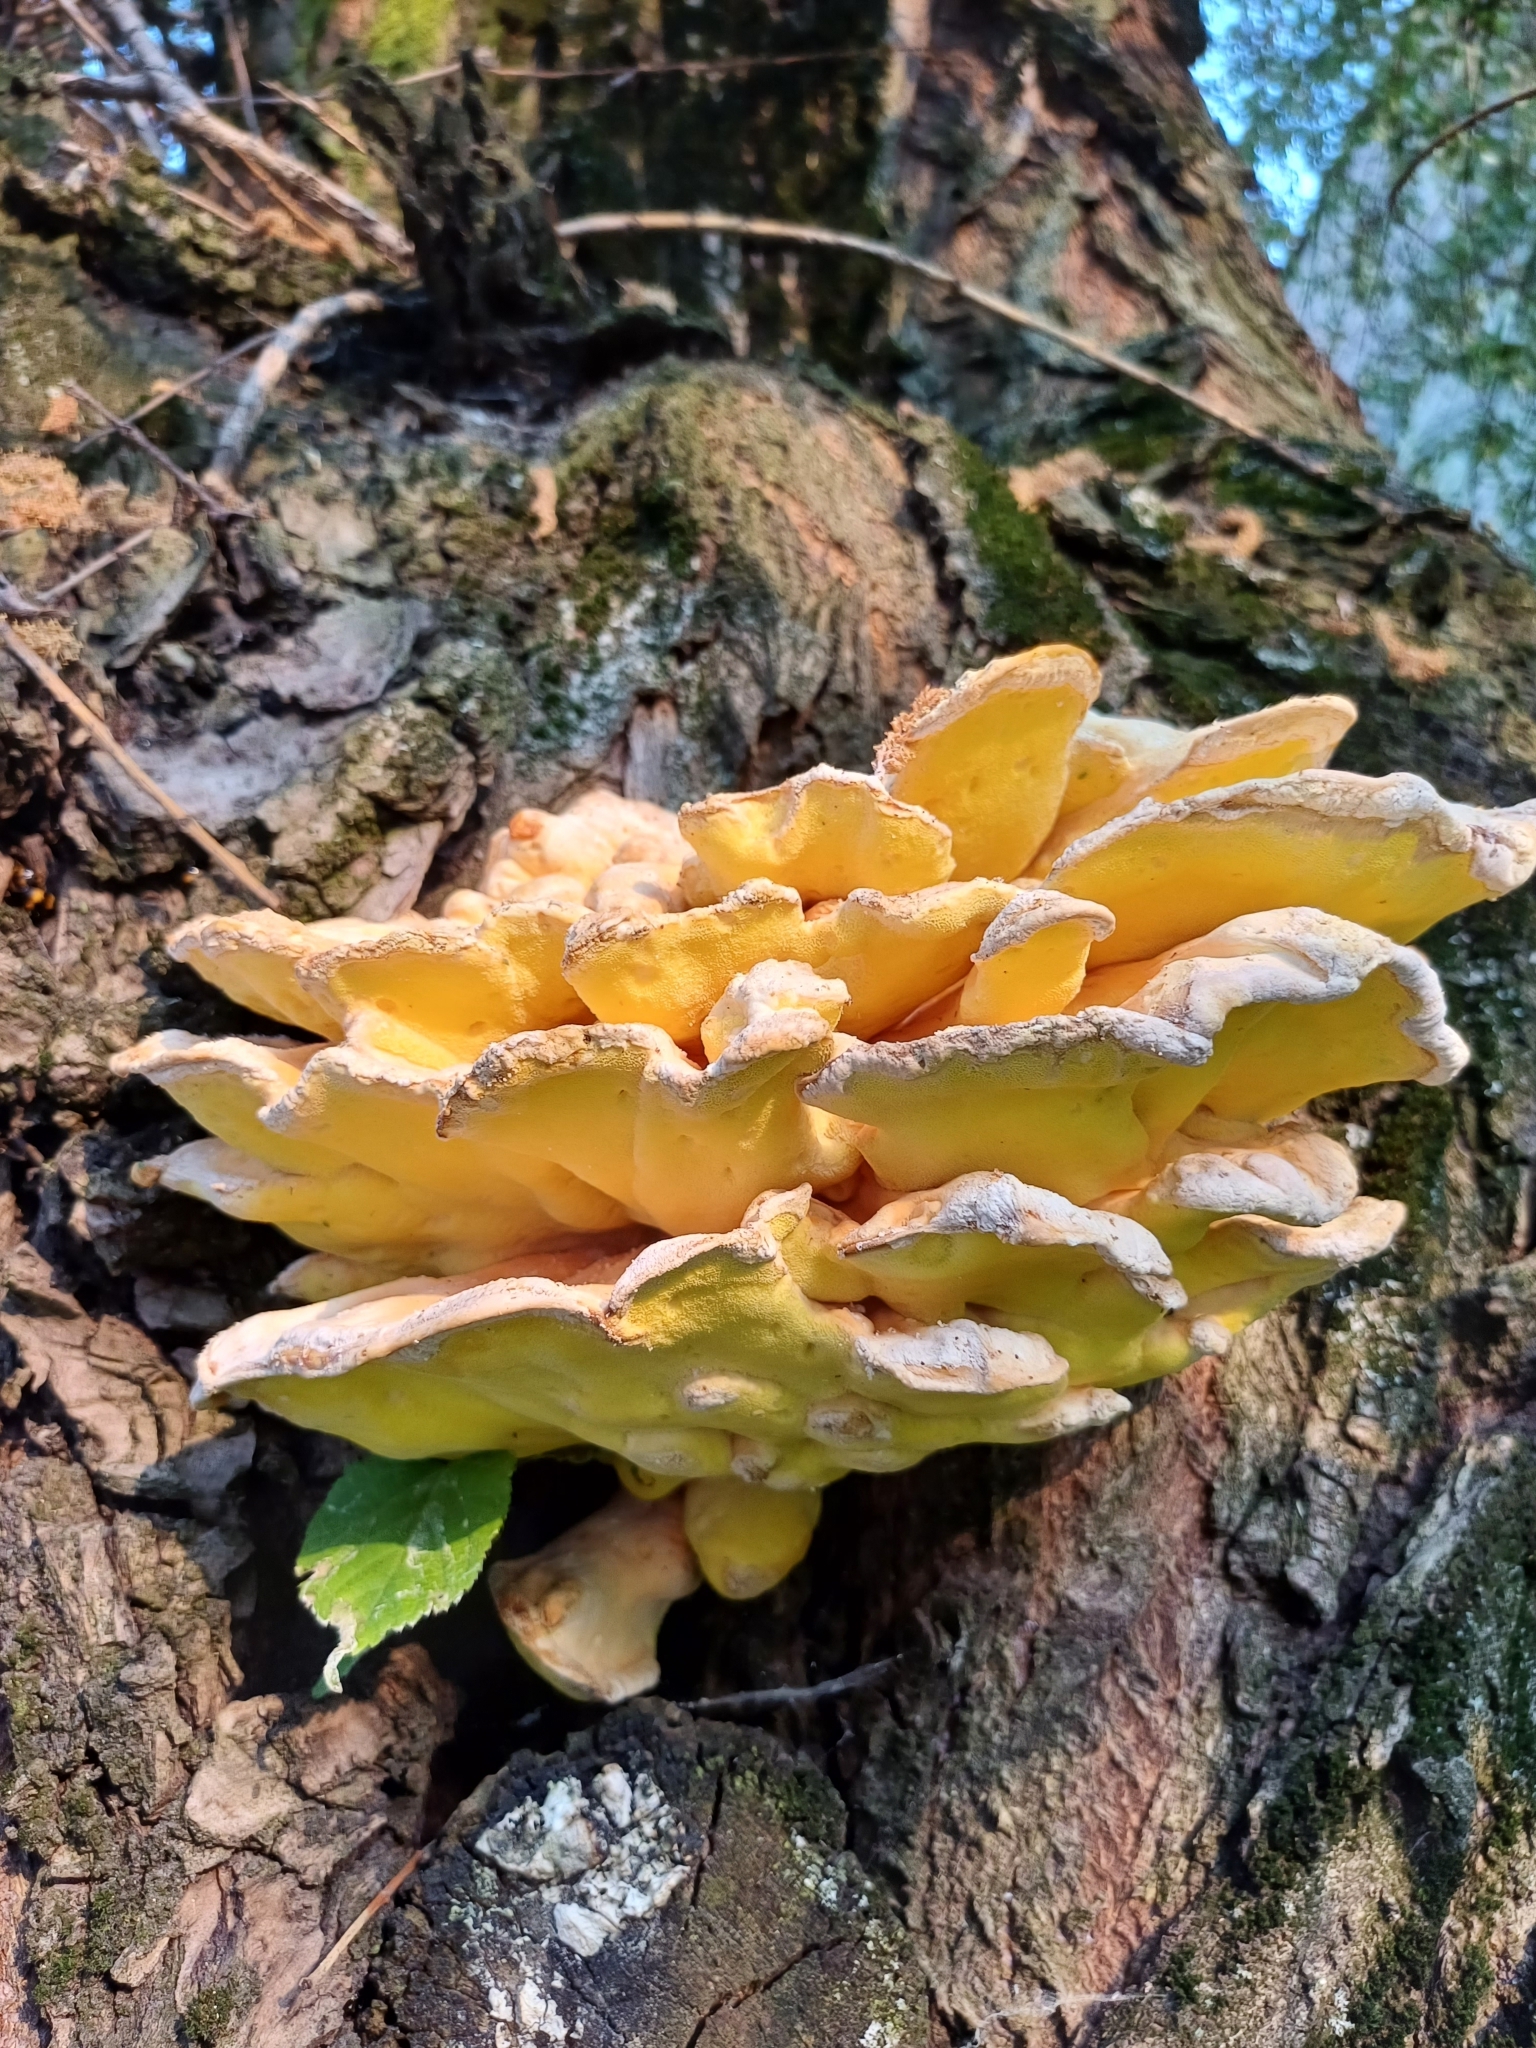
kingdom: Fungi
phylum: Basidiomycota
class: Agaricomycetes
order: Polyporales
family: Laetiporaceae
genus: Laetiporus
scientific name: Laetiporus sulphureus
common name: Chicken of the woods
